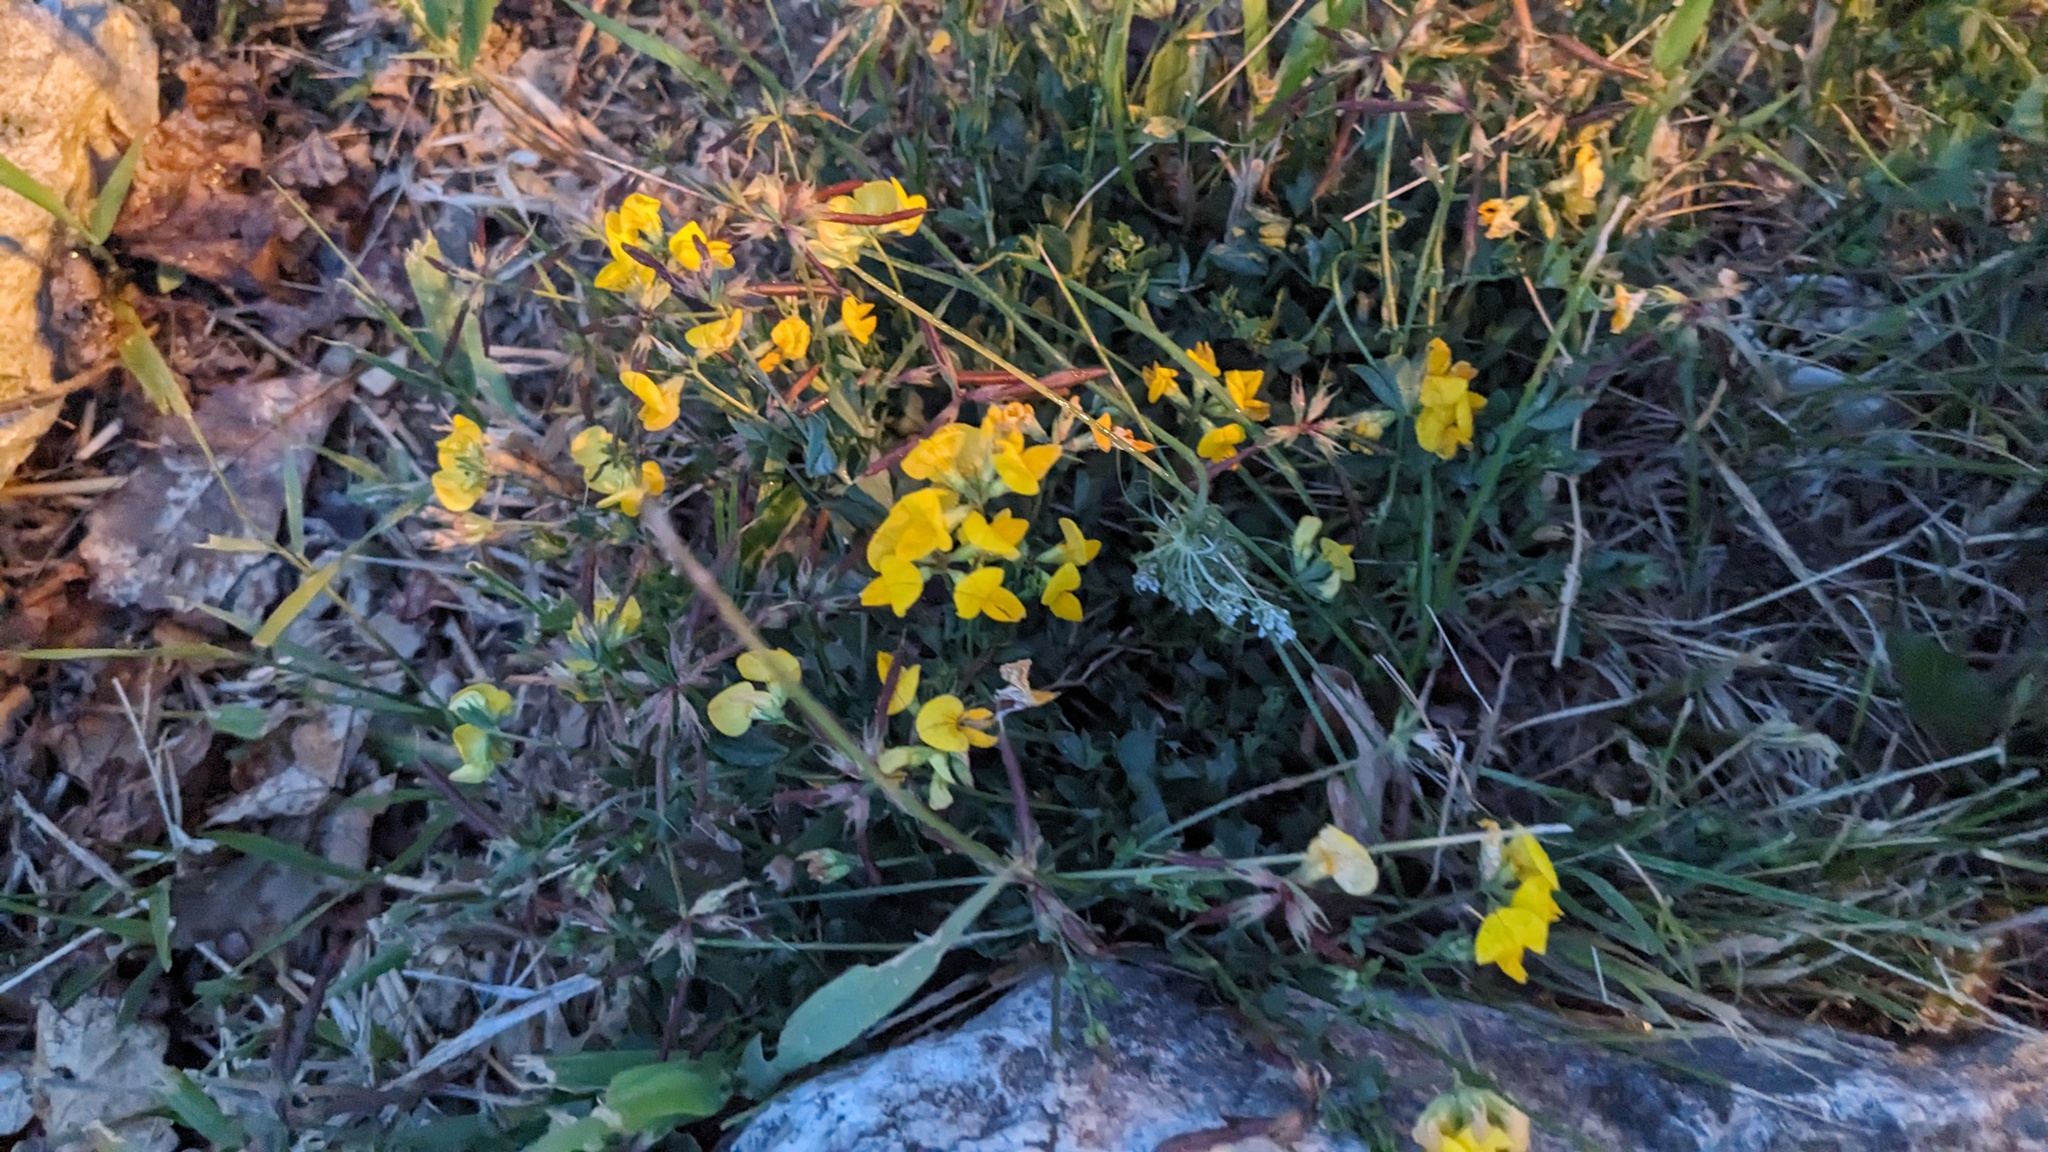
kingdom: Plantae
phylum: Tracheophyta
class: Magnoliopsida
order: Fabales
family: Fabaceae
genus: Lotus
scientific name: Lotus corniculatus
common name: Common bird's-foot-trefoil
